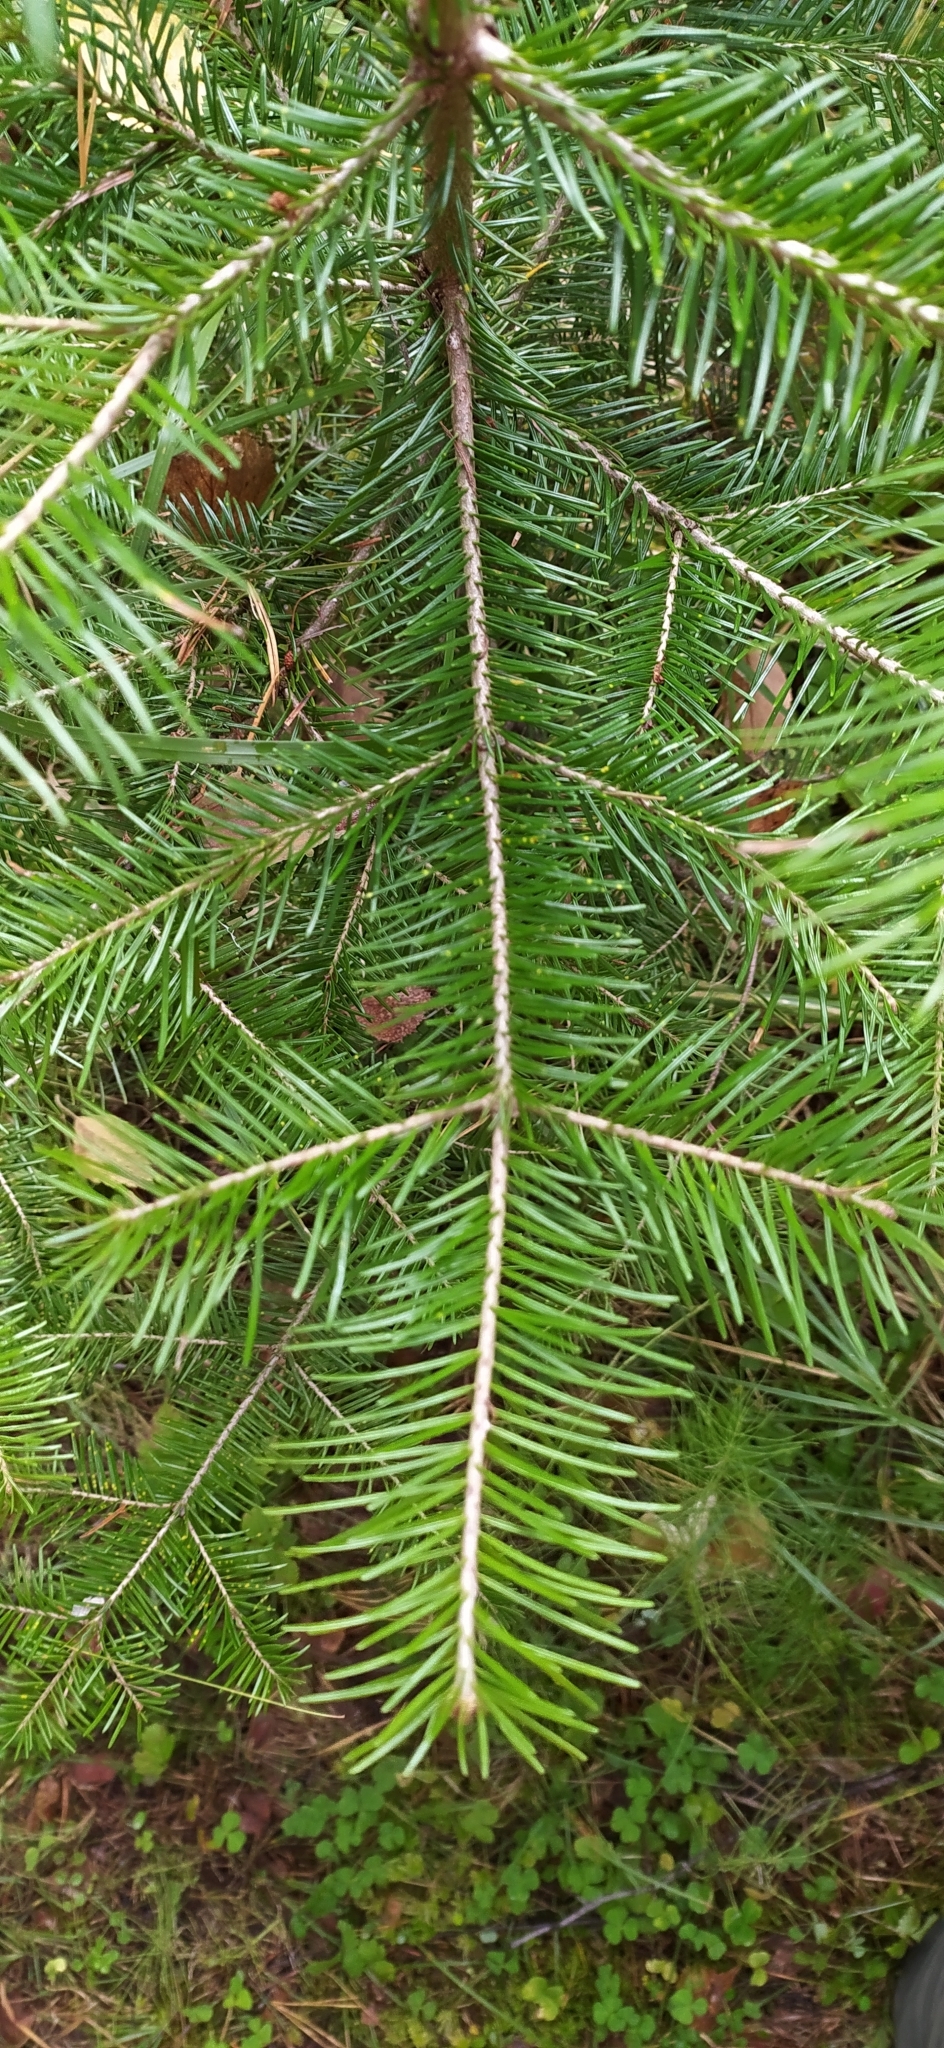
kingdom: Plantae
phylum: Tracheophyta
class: Pinopsida
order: Pinales
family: Pinaceae
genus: Abies
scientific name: Abies sibirica
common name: Siberian fir
